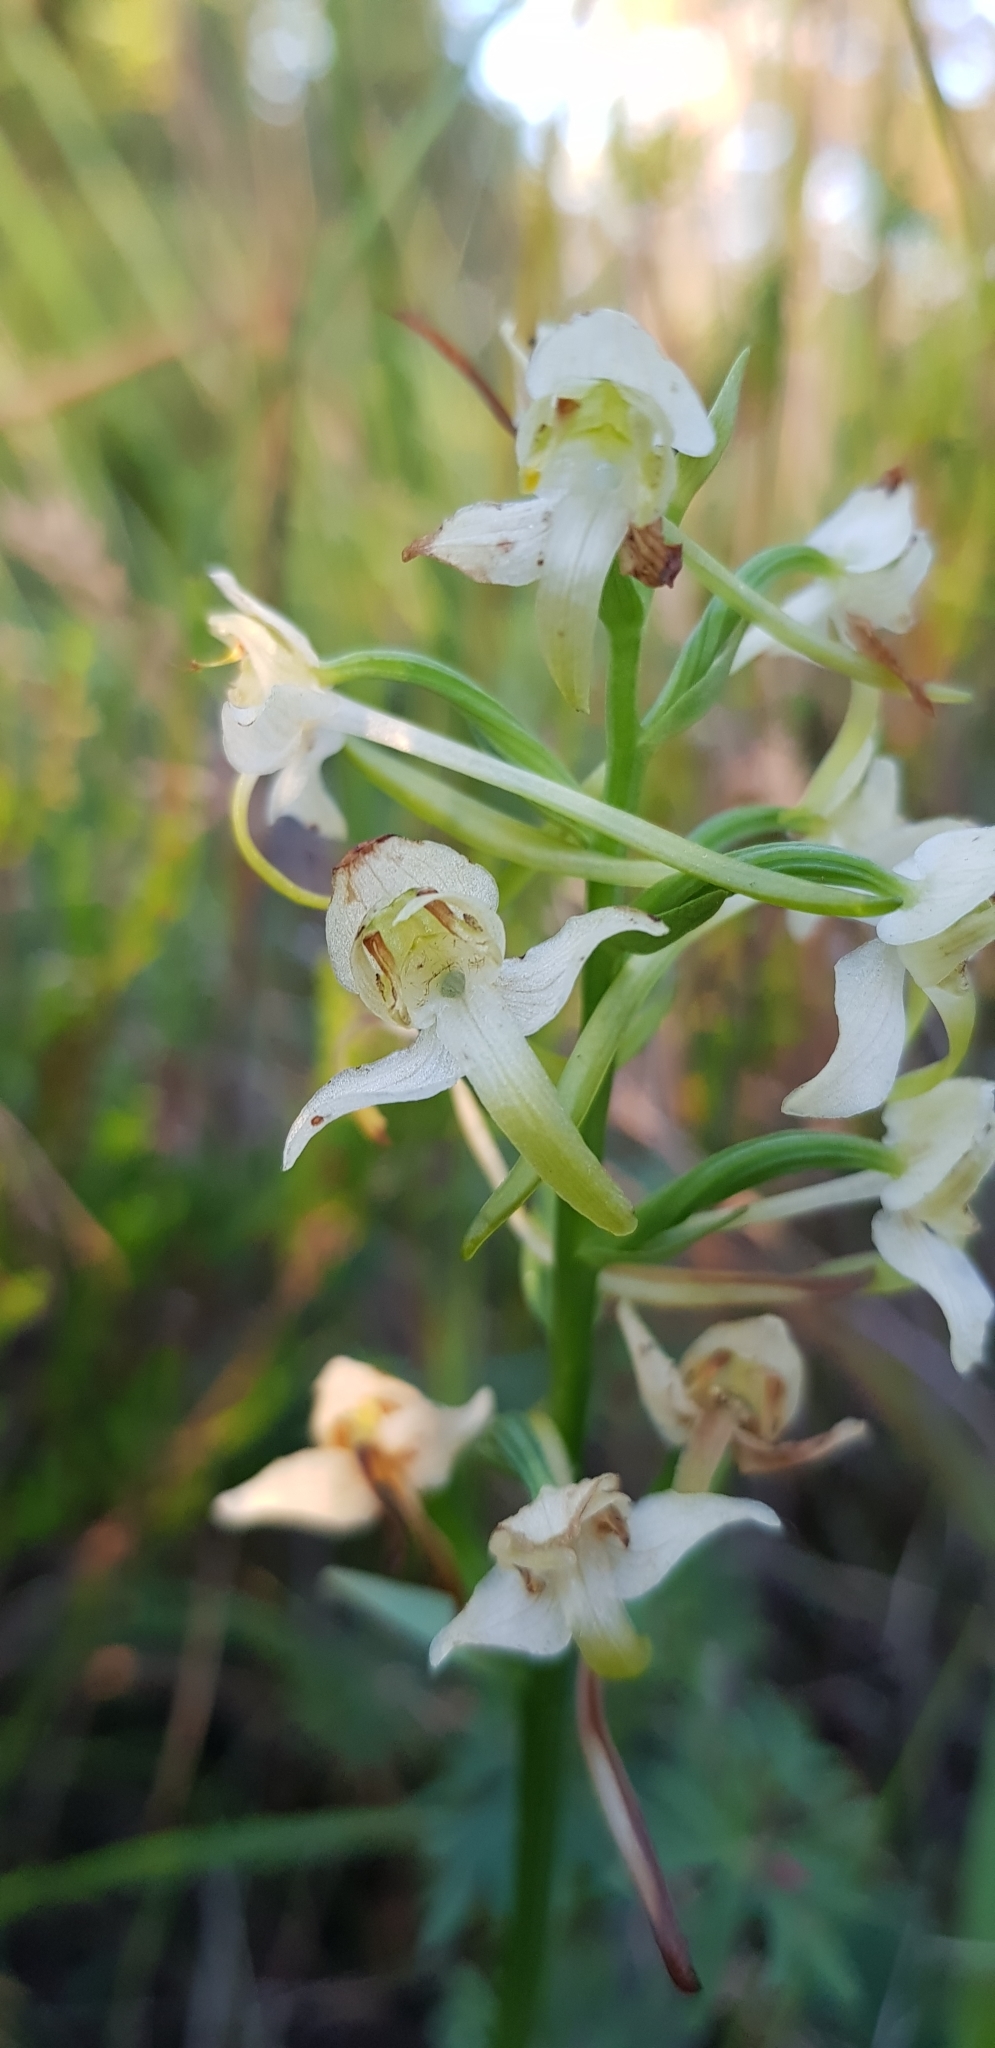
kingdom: Plantae
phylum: Tracheophyta
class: Liliopsida
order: Asparagales
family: Orchidaceae
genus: Platanthera
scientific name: Platanthera chlorantha
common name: Greater butterfly-orchid
